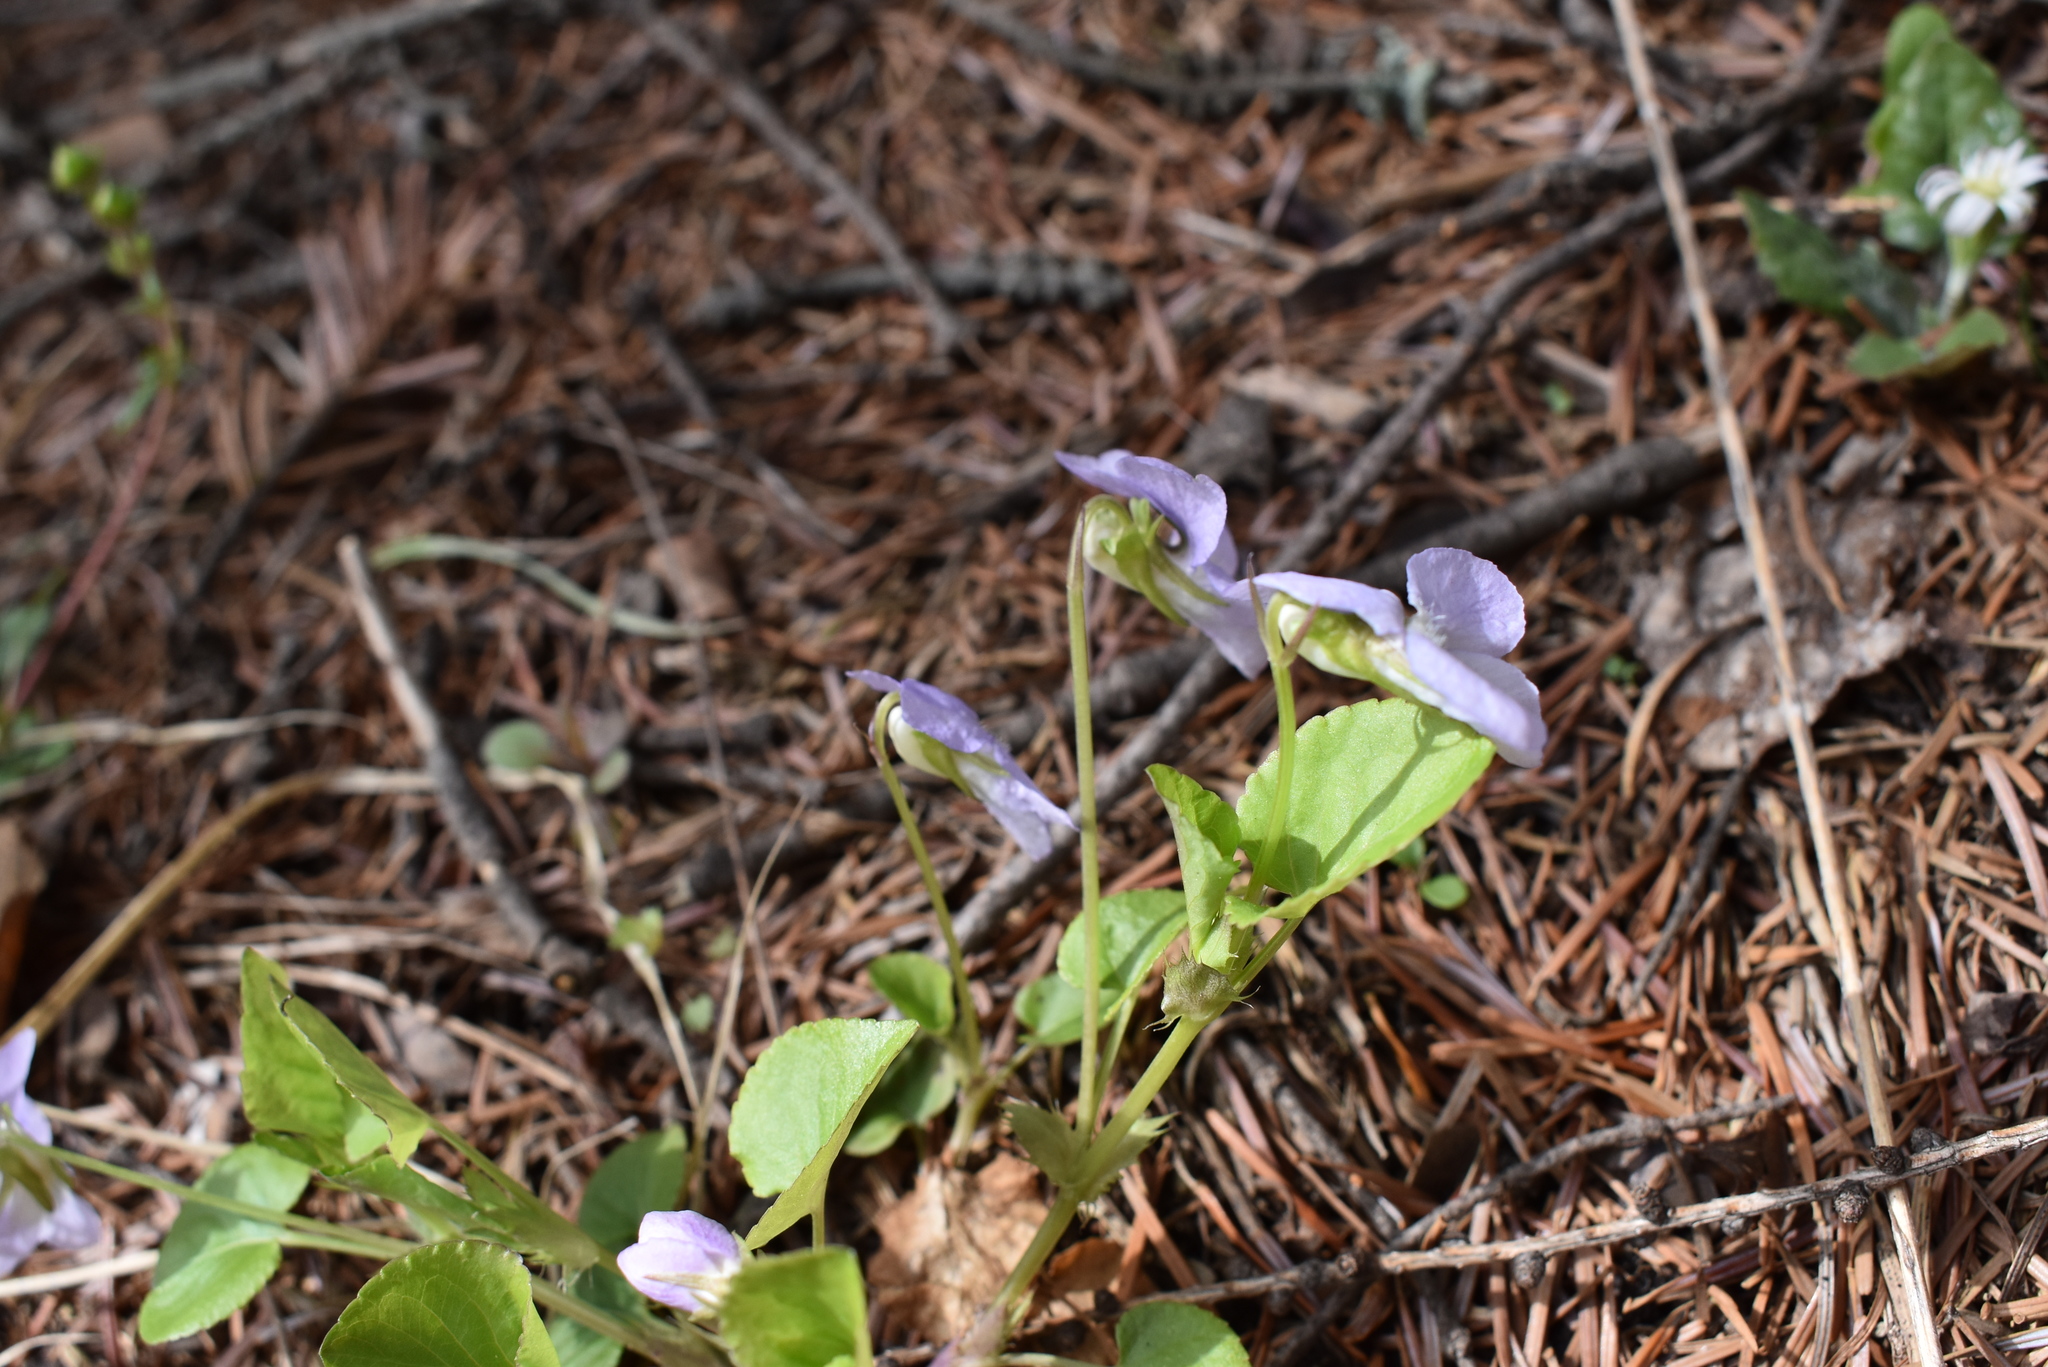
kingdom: Plantae
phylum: Tracheophyta
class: Magnoliopsida
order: Malpighiales
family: Violaceae
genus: Viola
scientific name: Viola sacchalinensis
